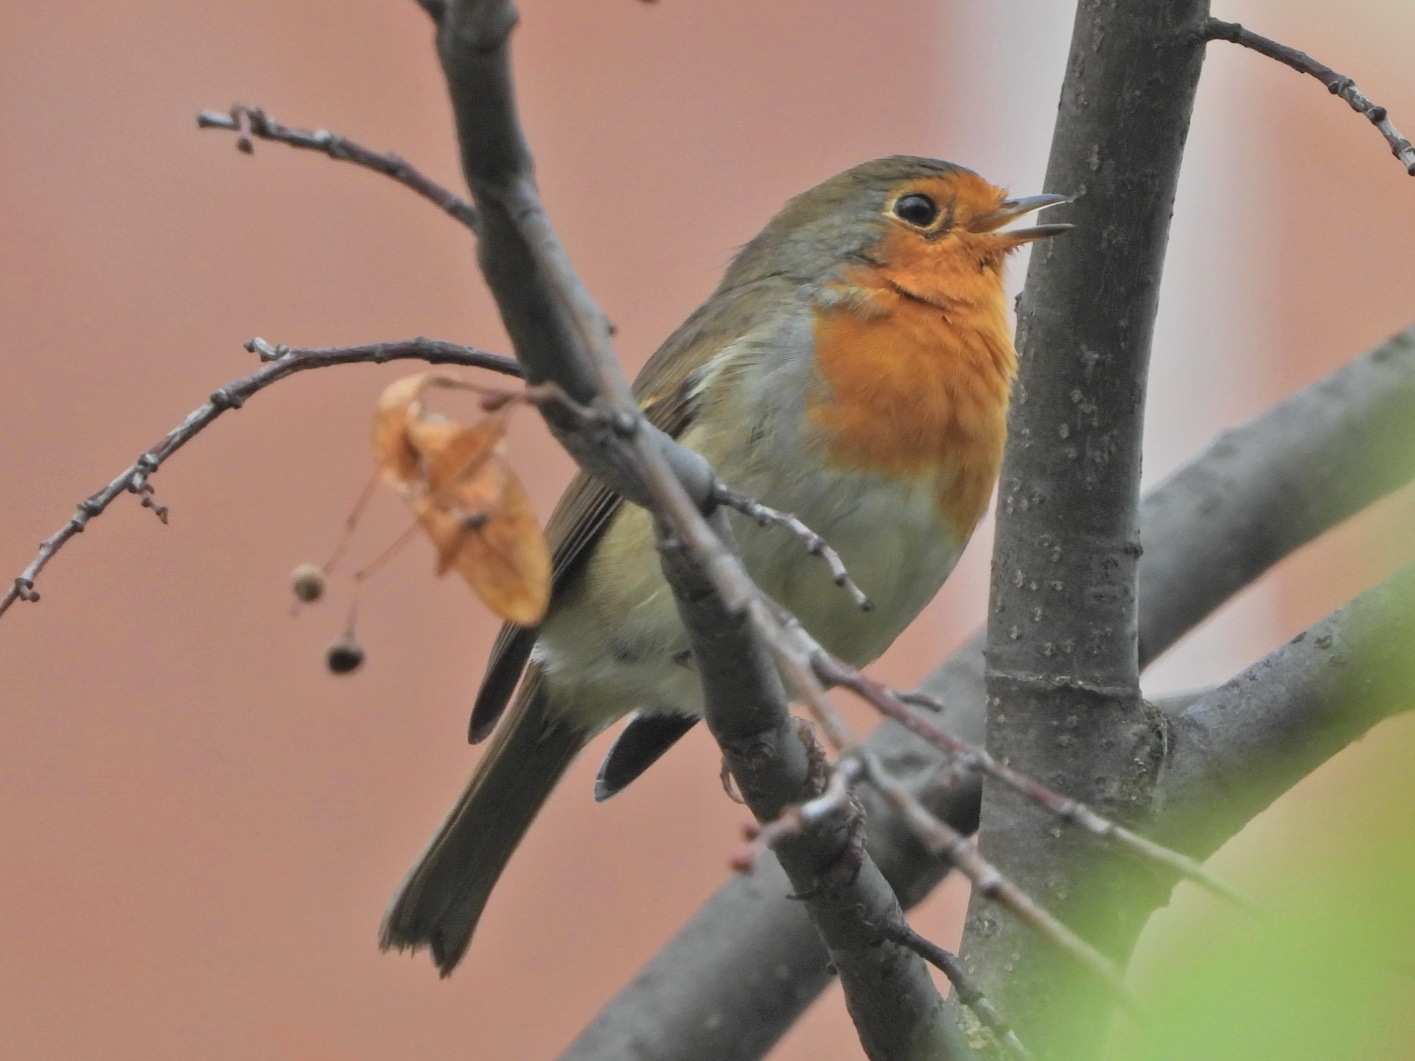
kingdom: Animalia
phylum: Chordata
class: Aves
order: Passeriformes
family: Muscicapidae
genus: Erithacus
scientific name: Erithacus rubecula
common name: European robin
